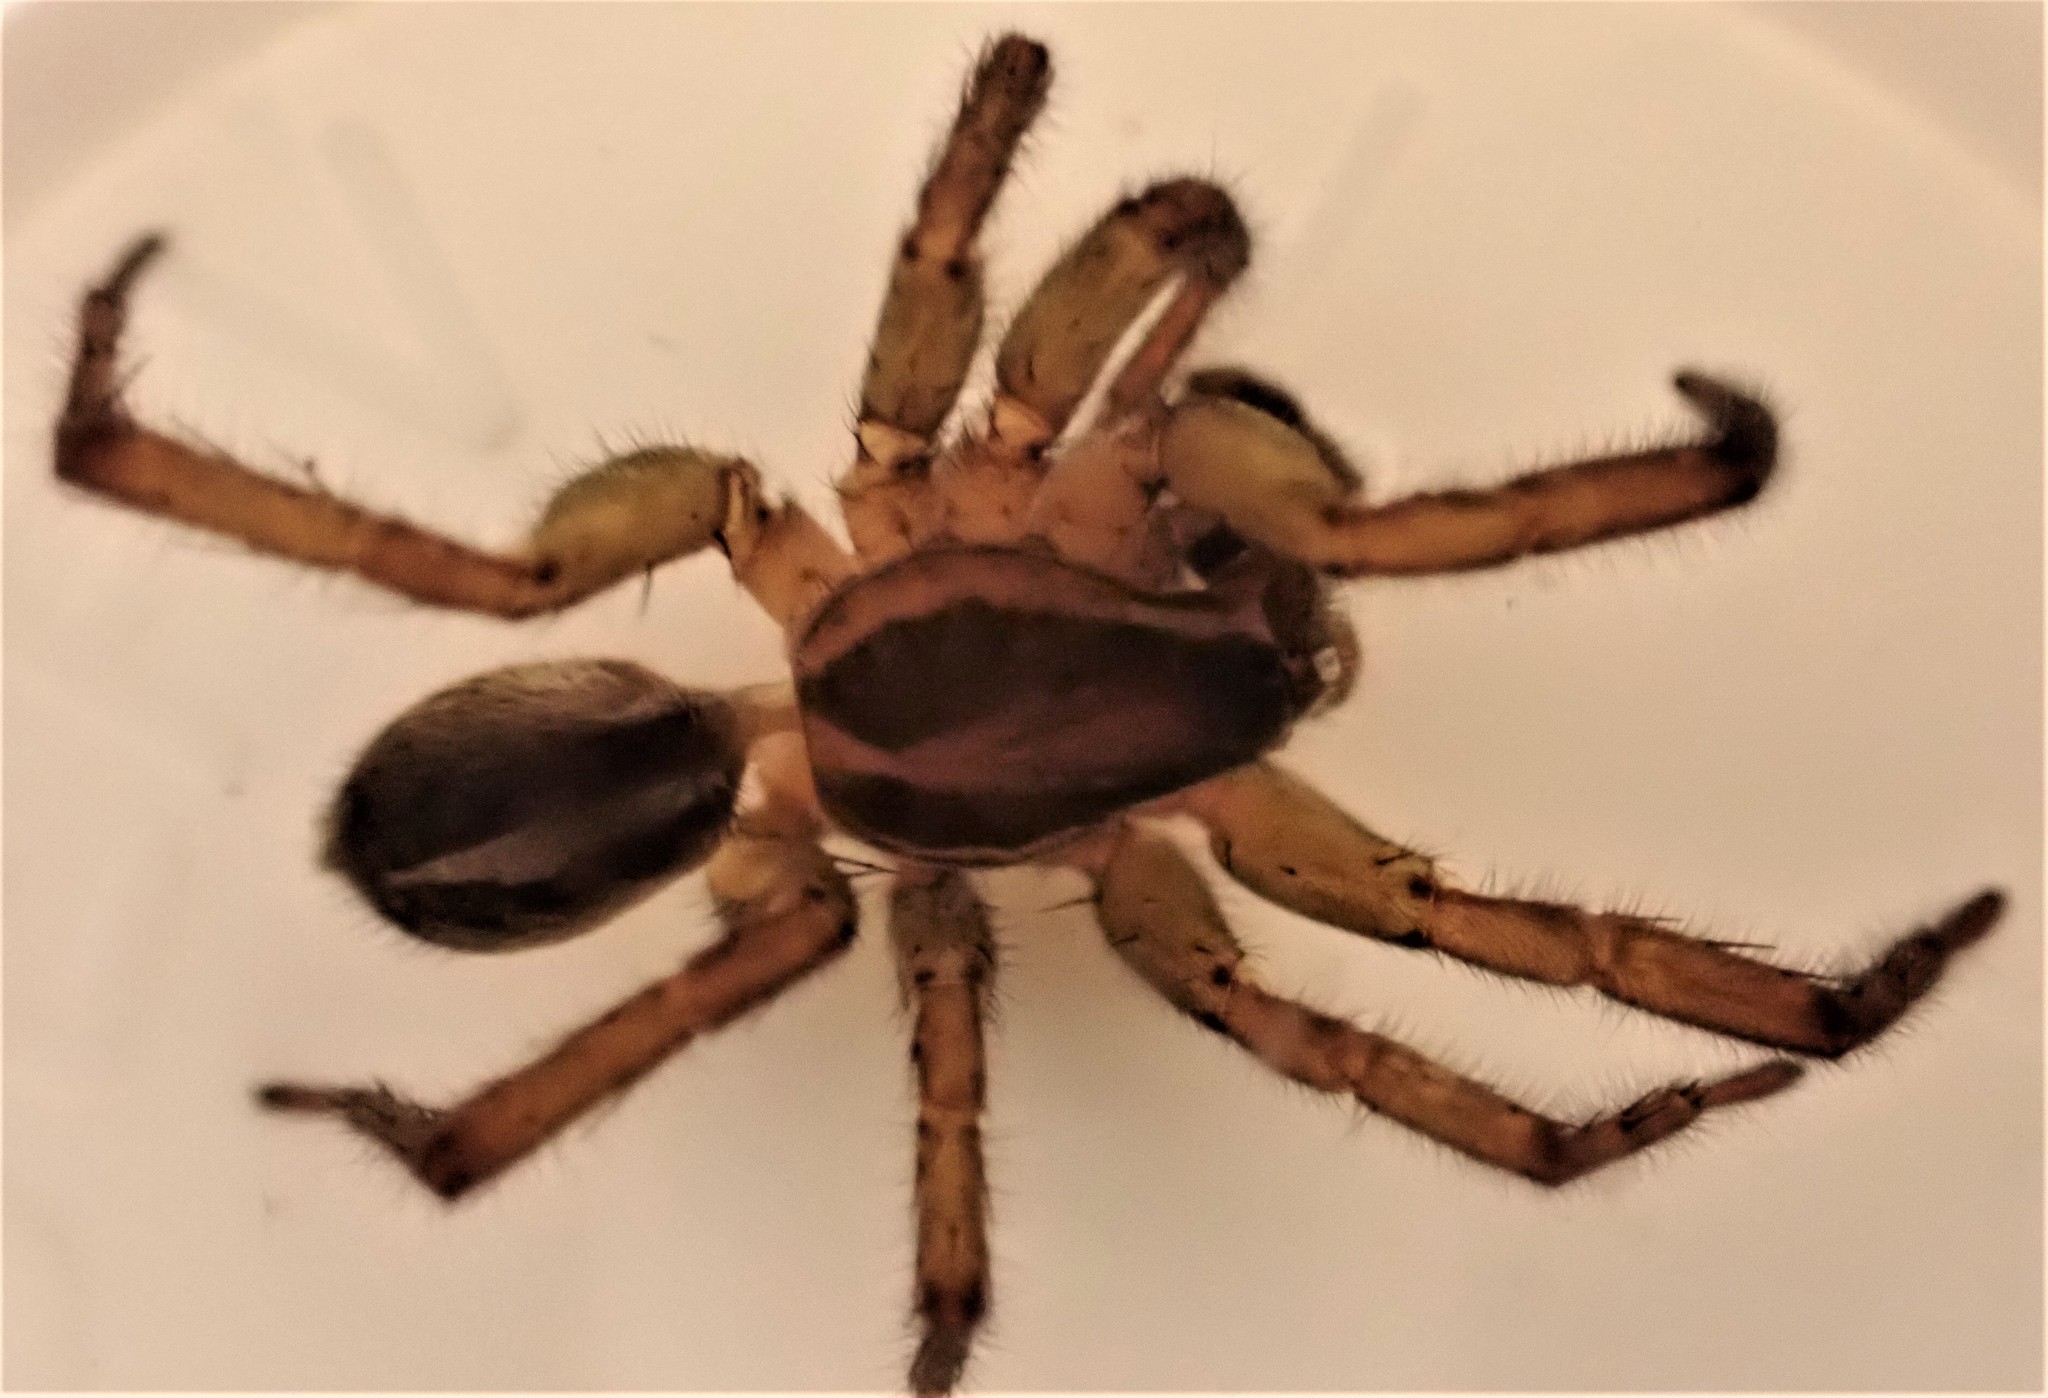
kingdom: Animalia
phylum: Arthropoda
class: Arachnida
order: Araneae
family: Lycosidae
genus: Anoteropsis
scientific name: Anoteropsis hilaris
